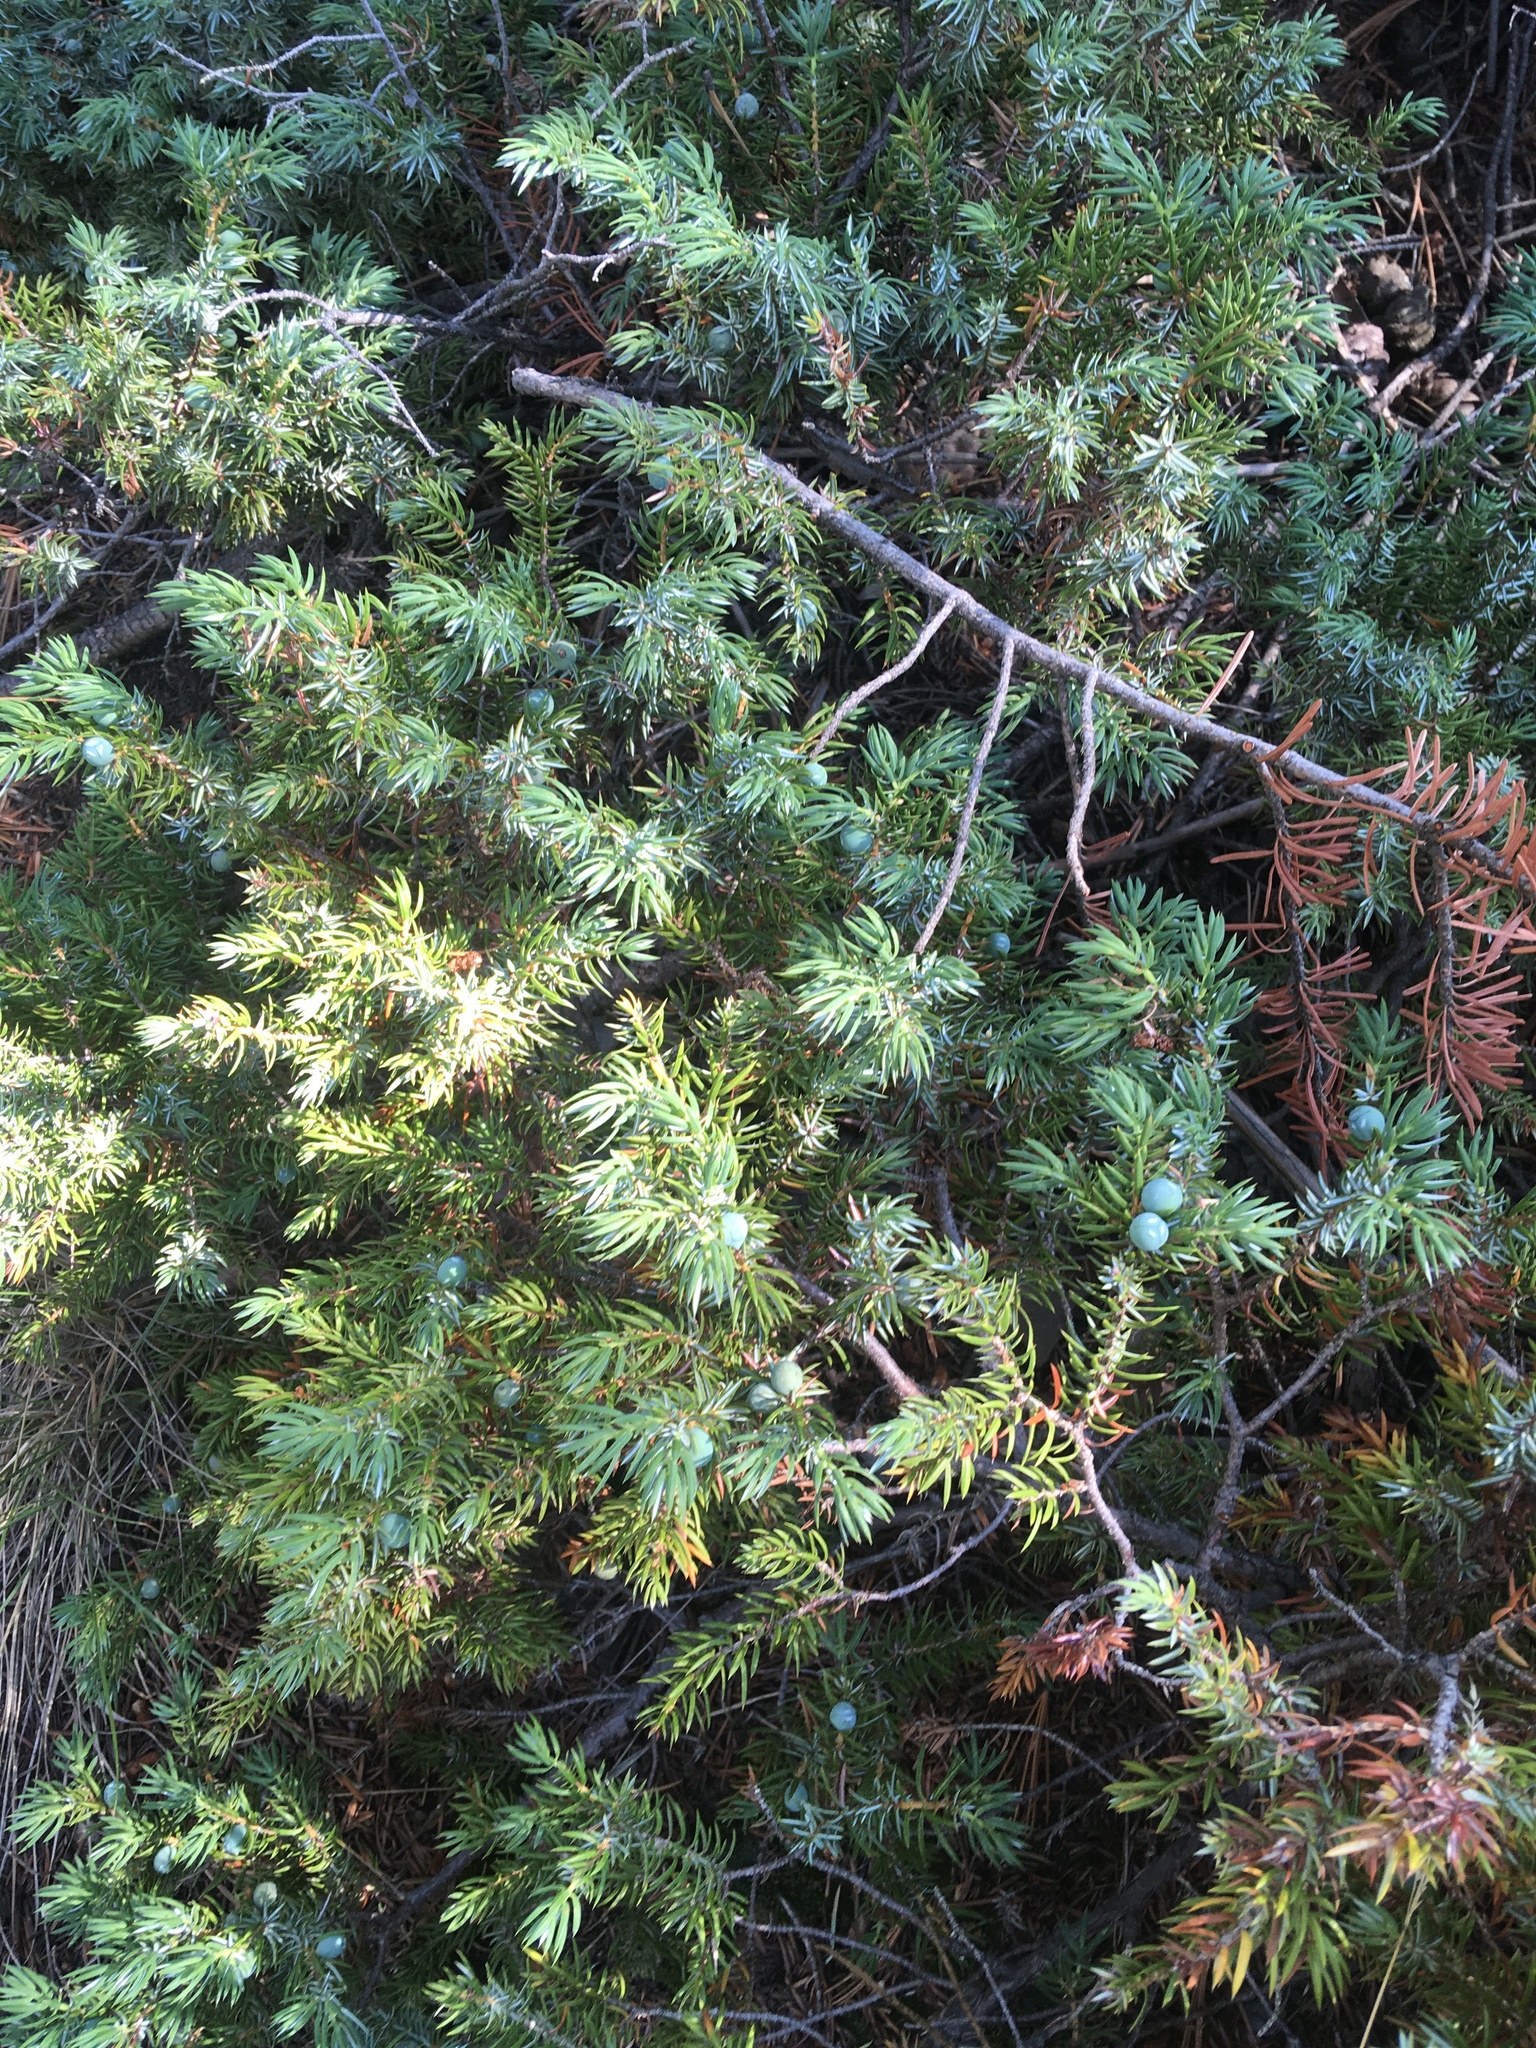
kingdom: Plantae
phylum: Tracheophyta
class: Pinopsida
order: Pinales
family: Cupressaceae
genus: Juniperus
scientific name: Juniperus communis
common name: Common juniper
